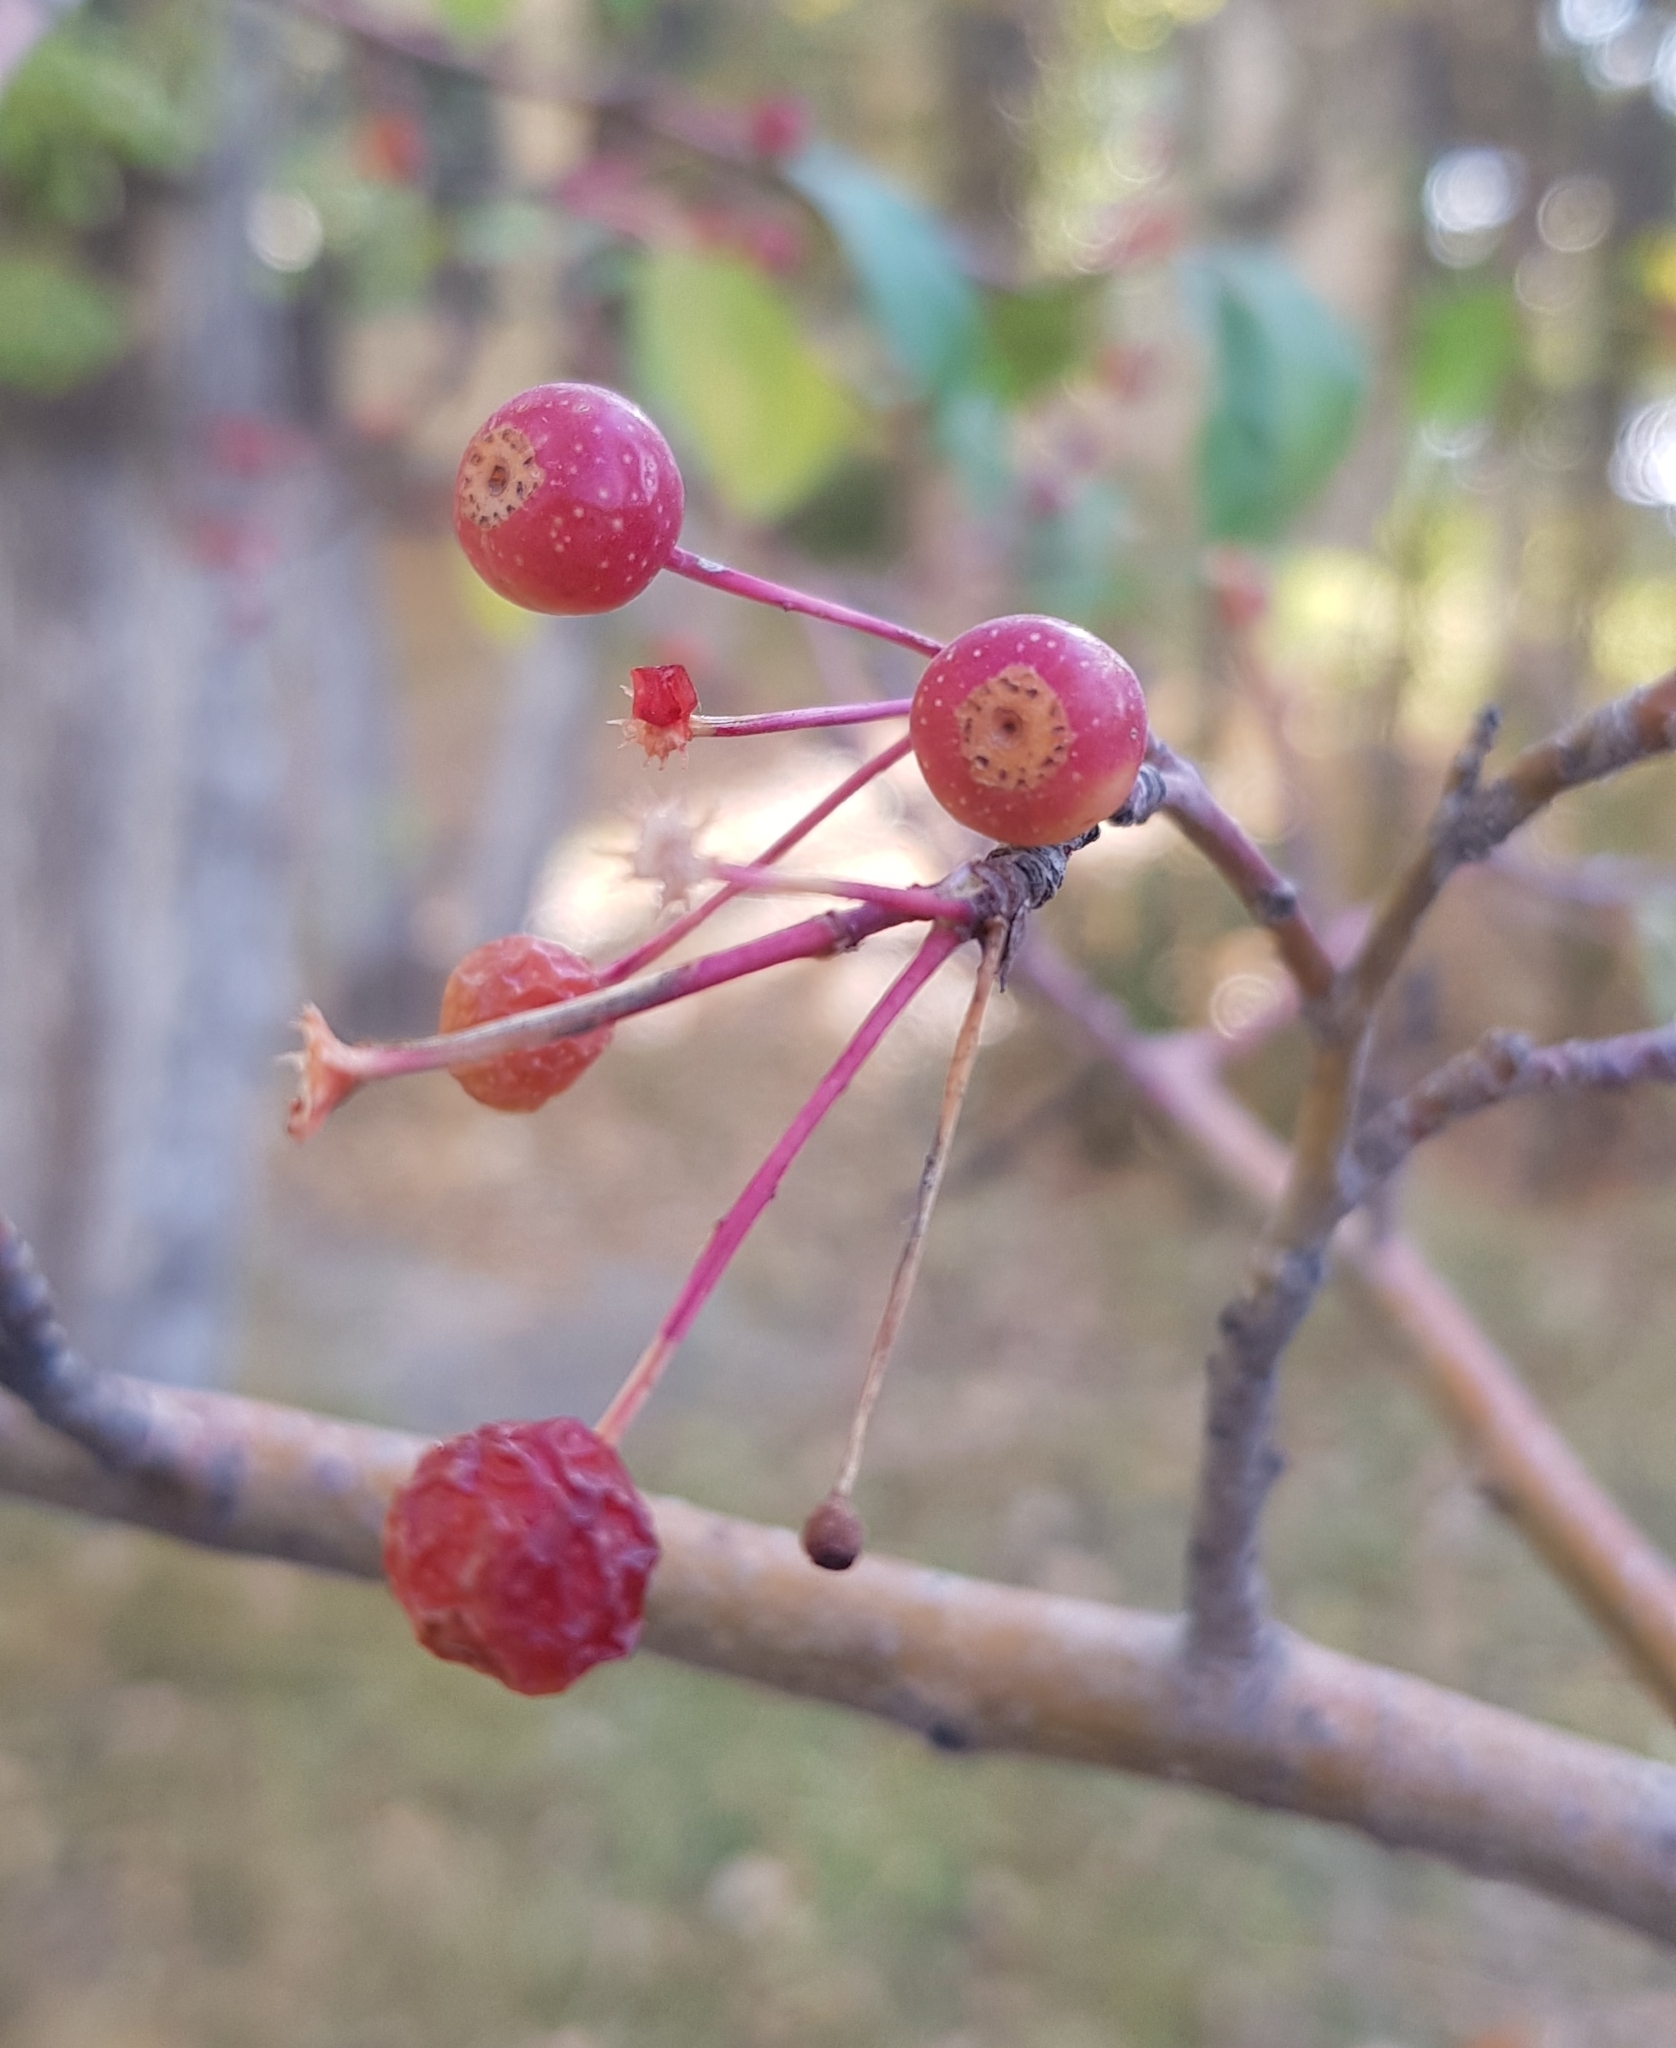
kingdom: Plantae
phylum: Tracheophyta
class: Magnoliopsida
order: Rosales
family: Rosaceae
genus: Malus
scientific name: Malus baccata
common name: Siberian crab
